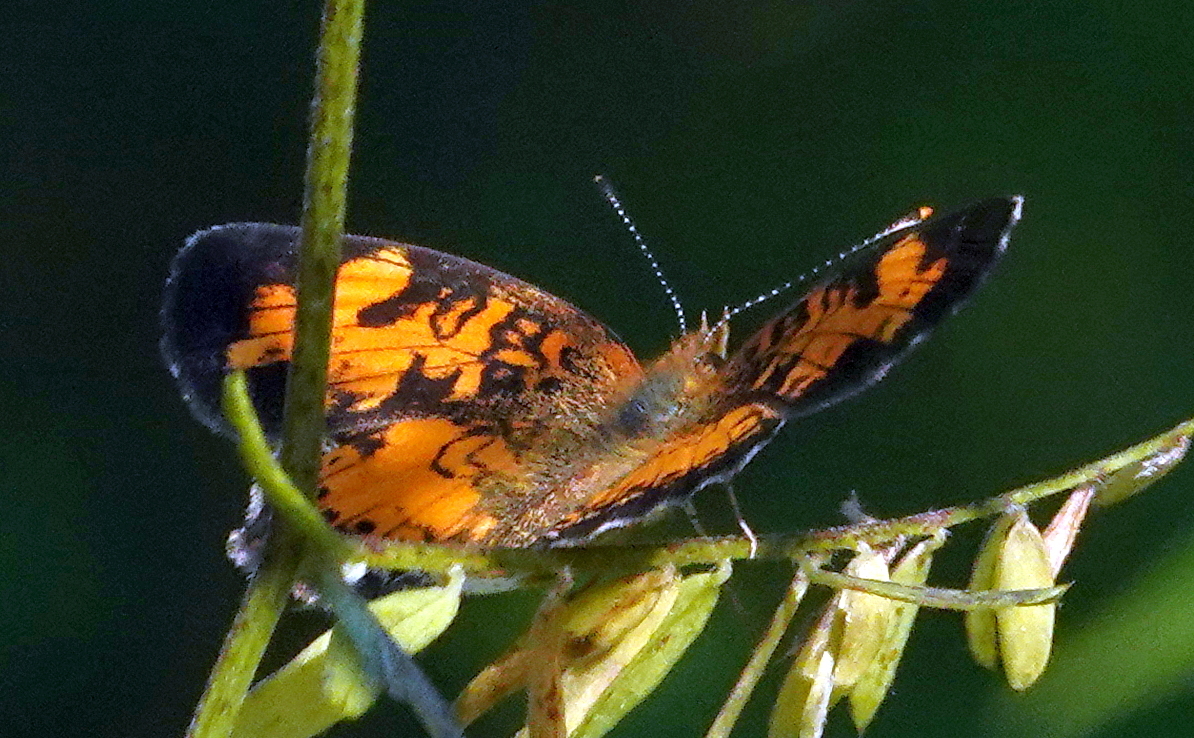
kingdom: Animalia
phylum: Arthropoda
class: Insecta
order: Lepidoptera
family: Nymphalidae
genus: Phyciodes
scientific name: Phyciodes tharos
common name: Pearl crescent
